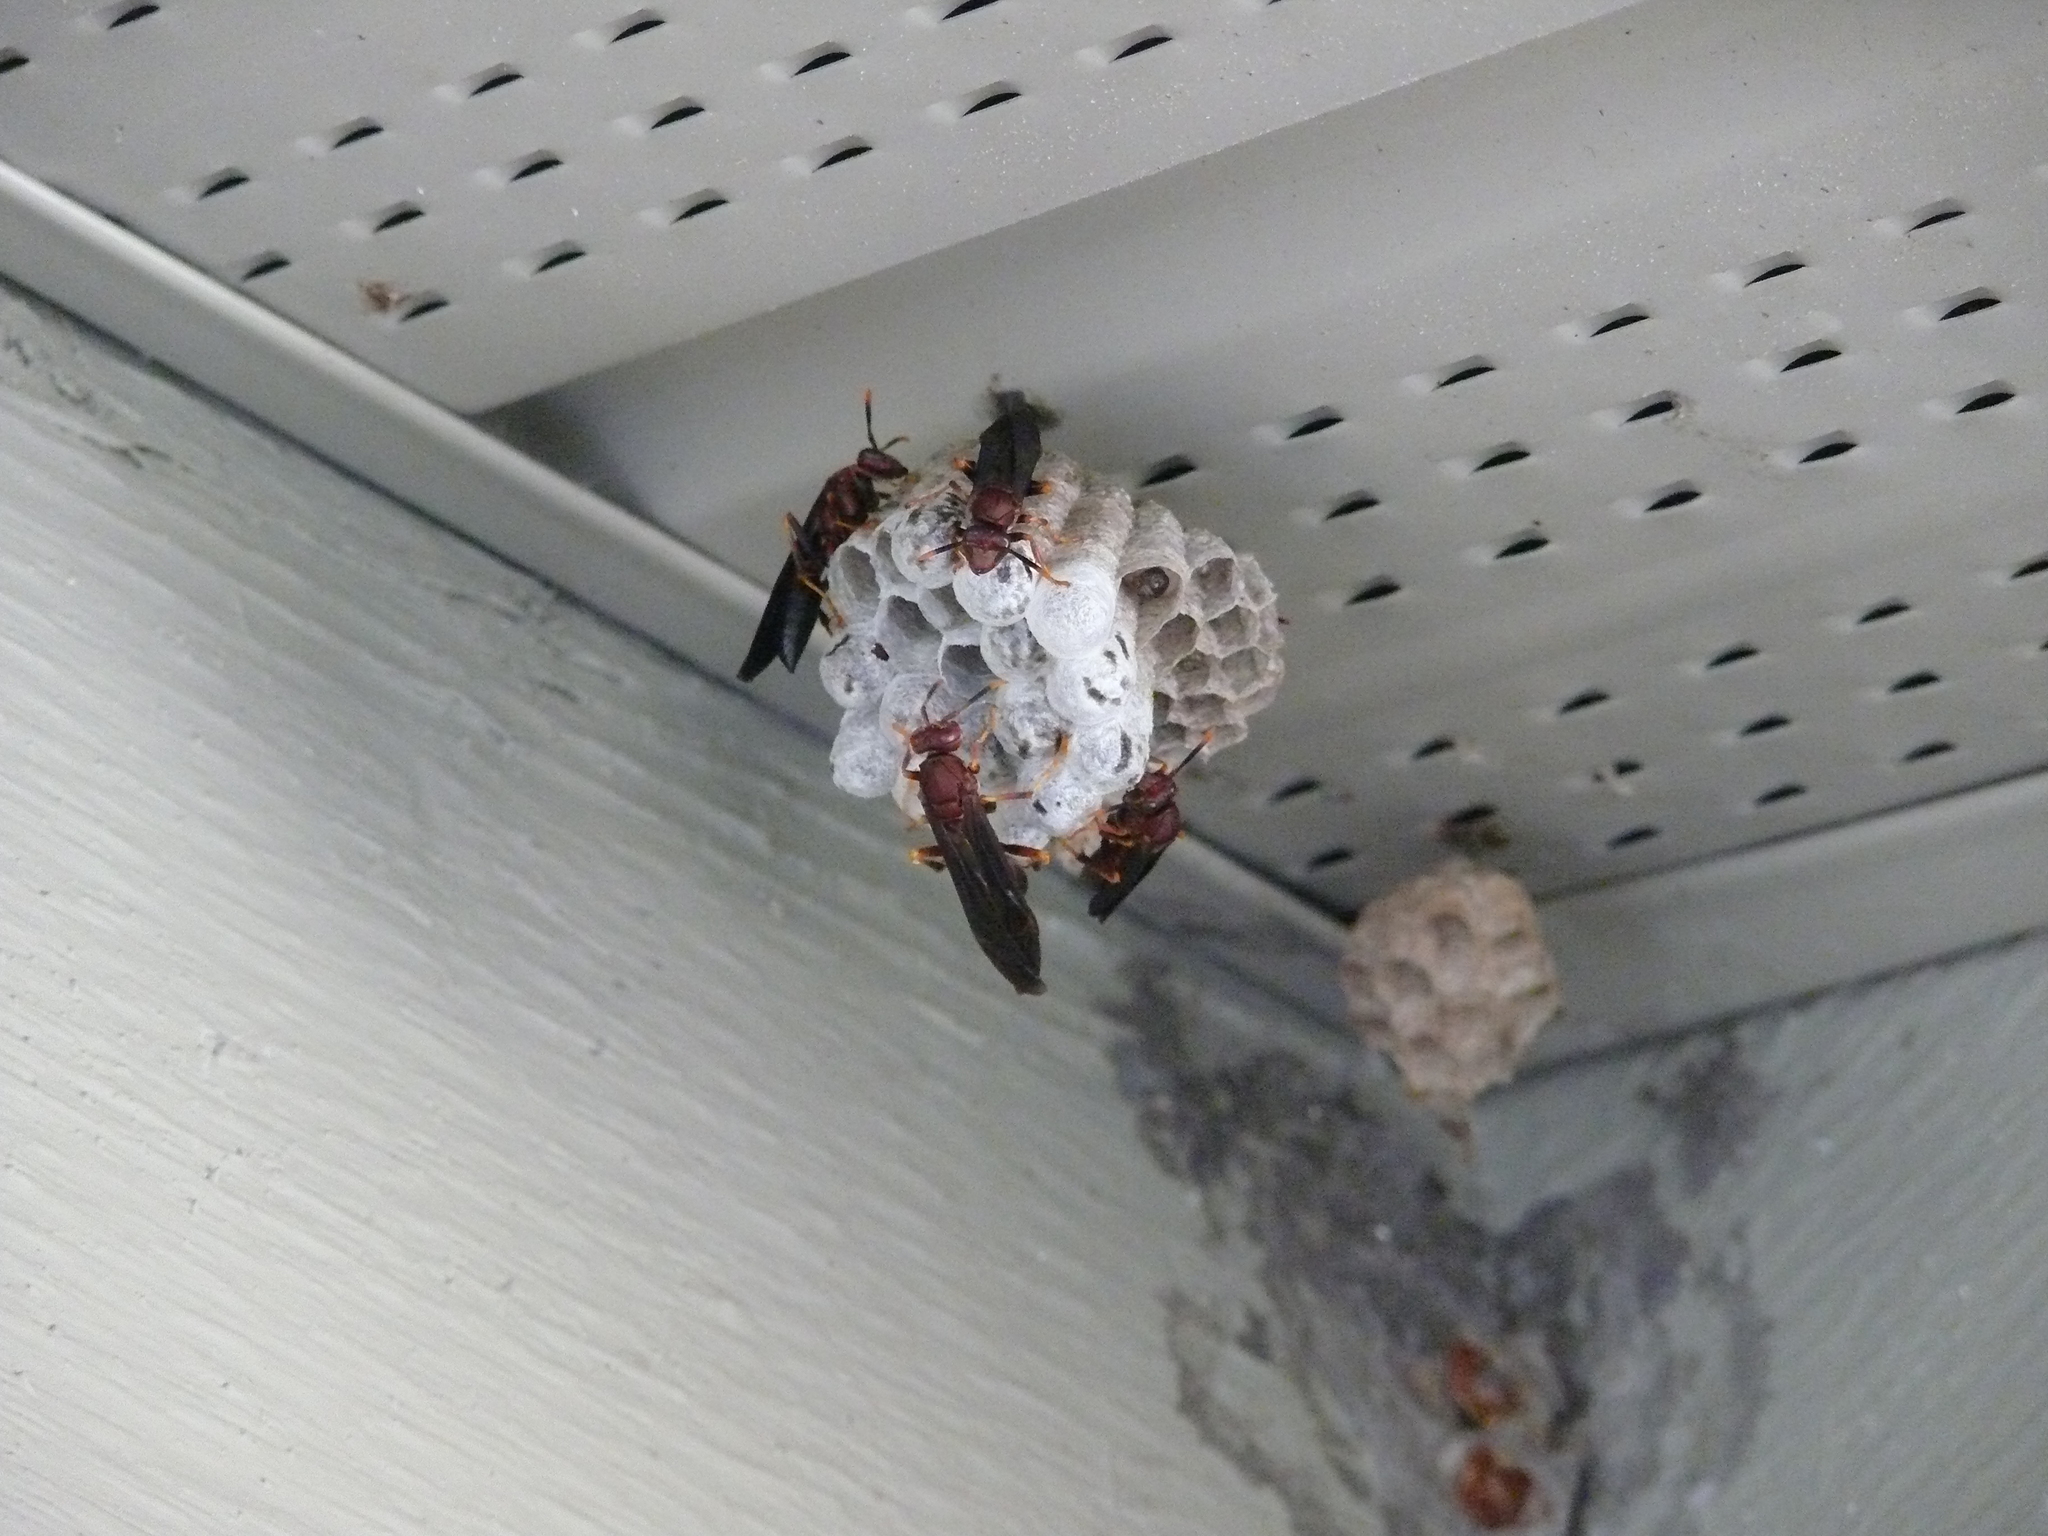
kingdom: Animalia
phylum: Arthropoda
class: Insecta
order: Hymenoptera
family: Eumenidae
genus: Polistes
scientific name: Polistes annularis
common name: Ringed paper wasp
